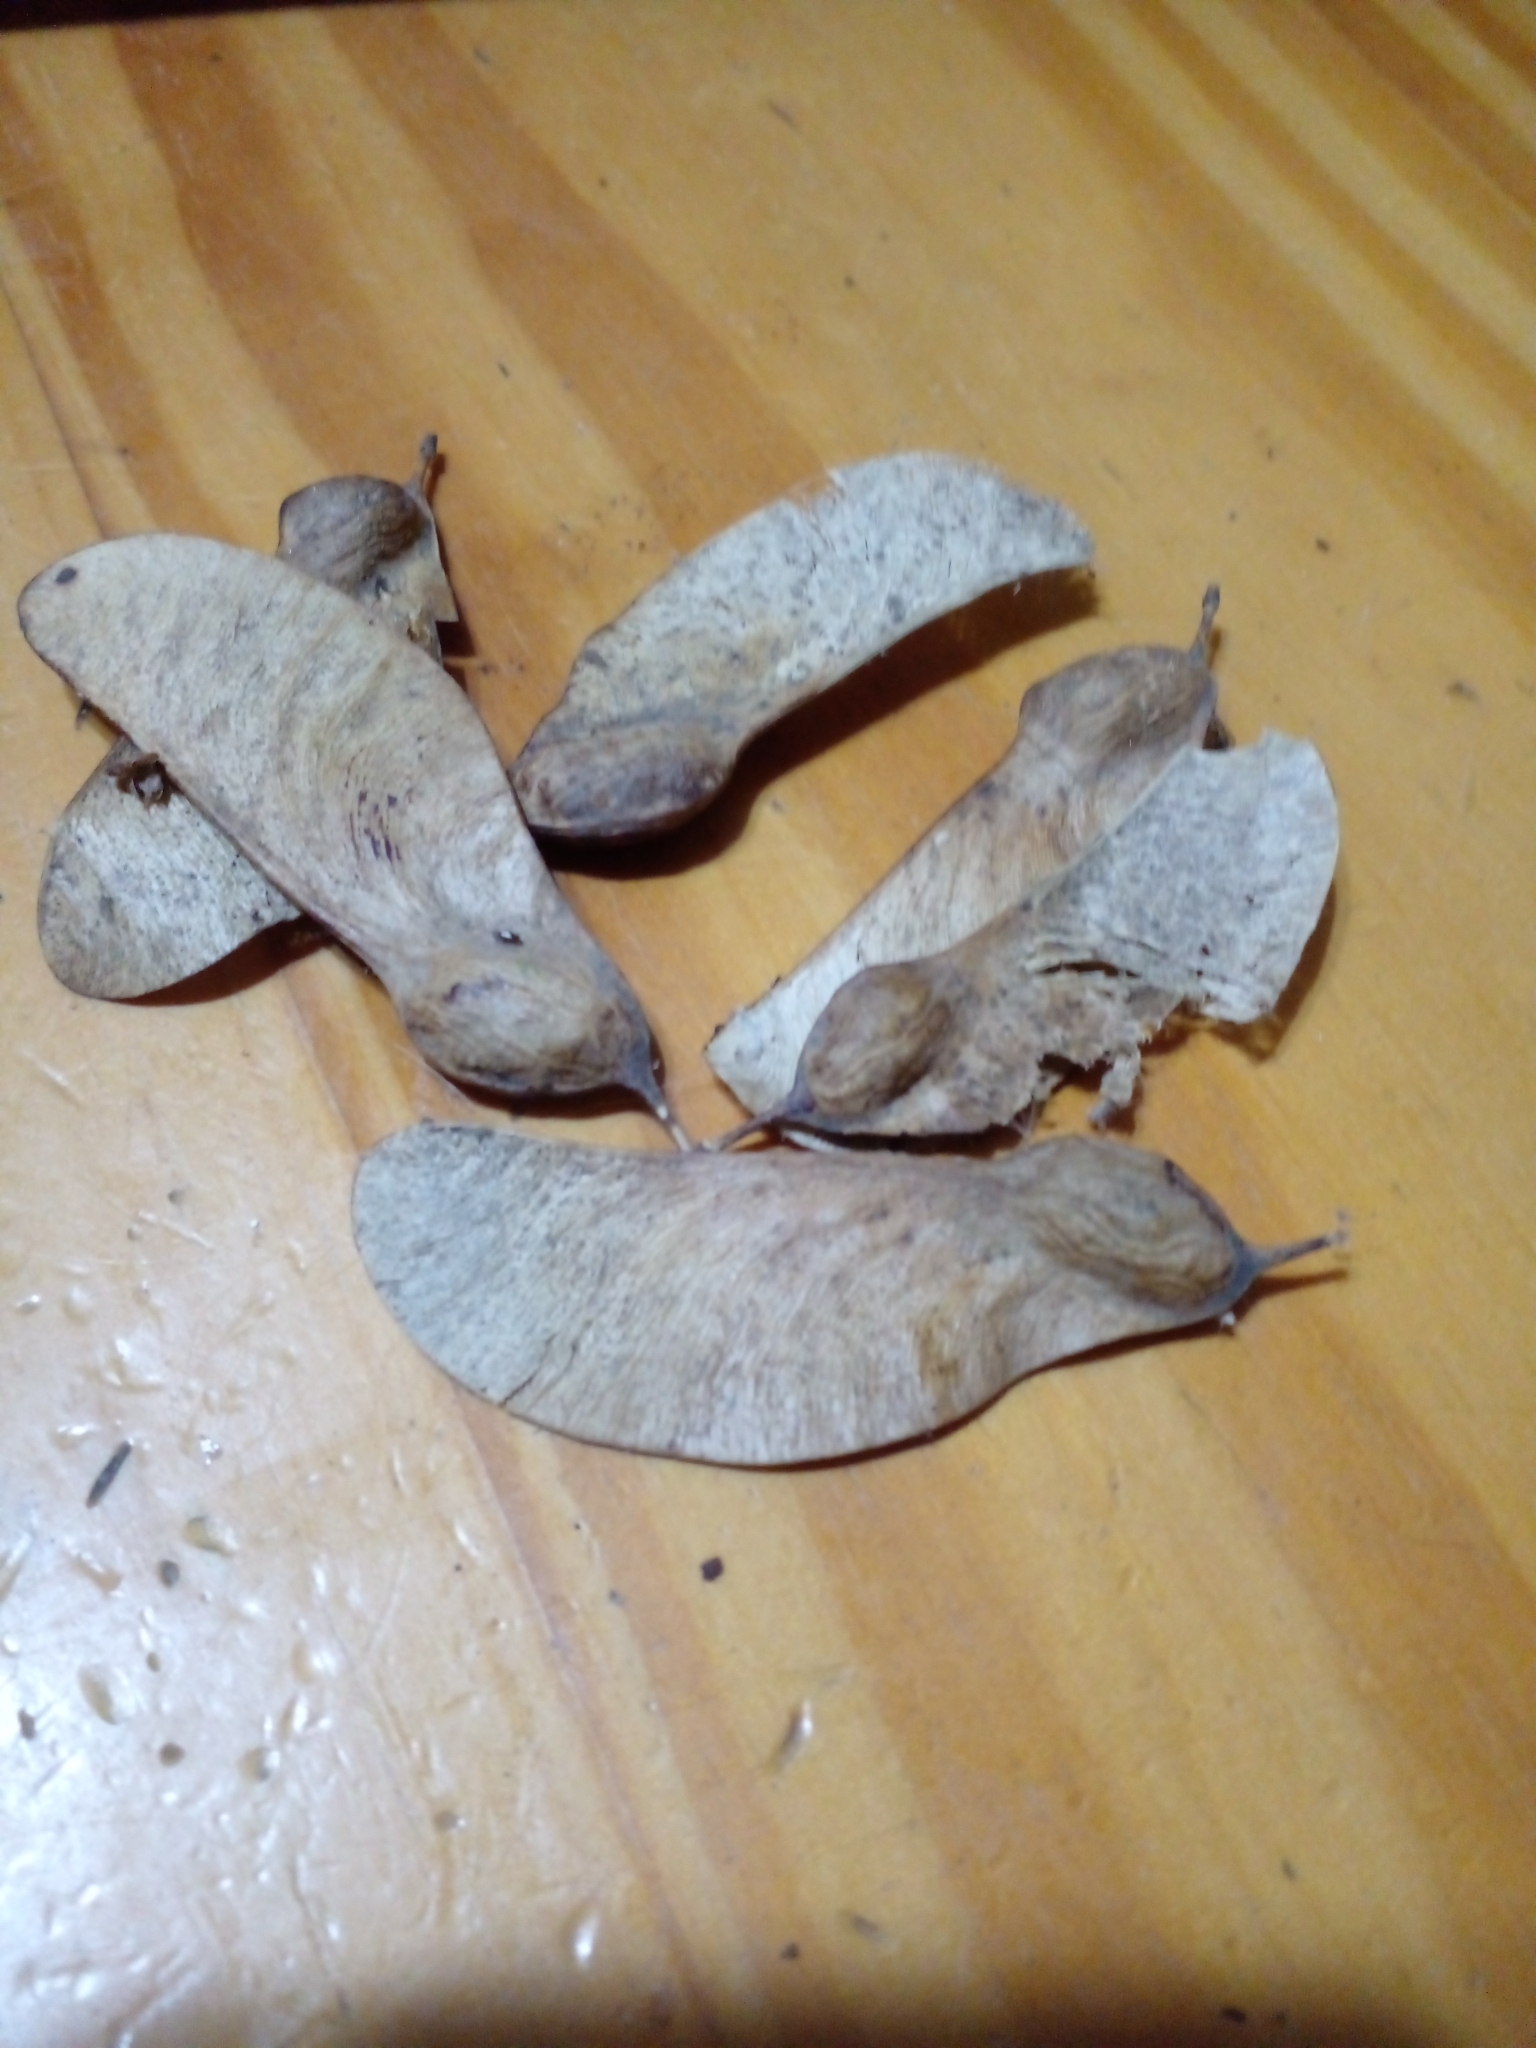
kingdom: Plantae
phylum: Tracheophyta
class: Magnoliopsida
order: Fabales
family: Fabaceae
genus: Tipuana
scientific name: Tipuana tipu
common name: Tiputree
